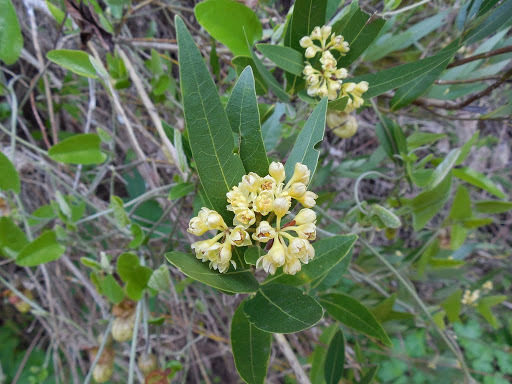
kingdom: Plantae
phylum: Tracheophyta
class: Magnoliopsida
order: Laurales
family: Lauraceae
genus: Umbellularia
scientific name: Umbellularia californica
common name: California bay
